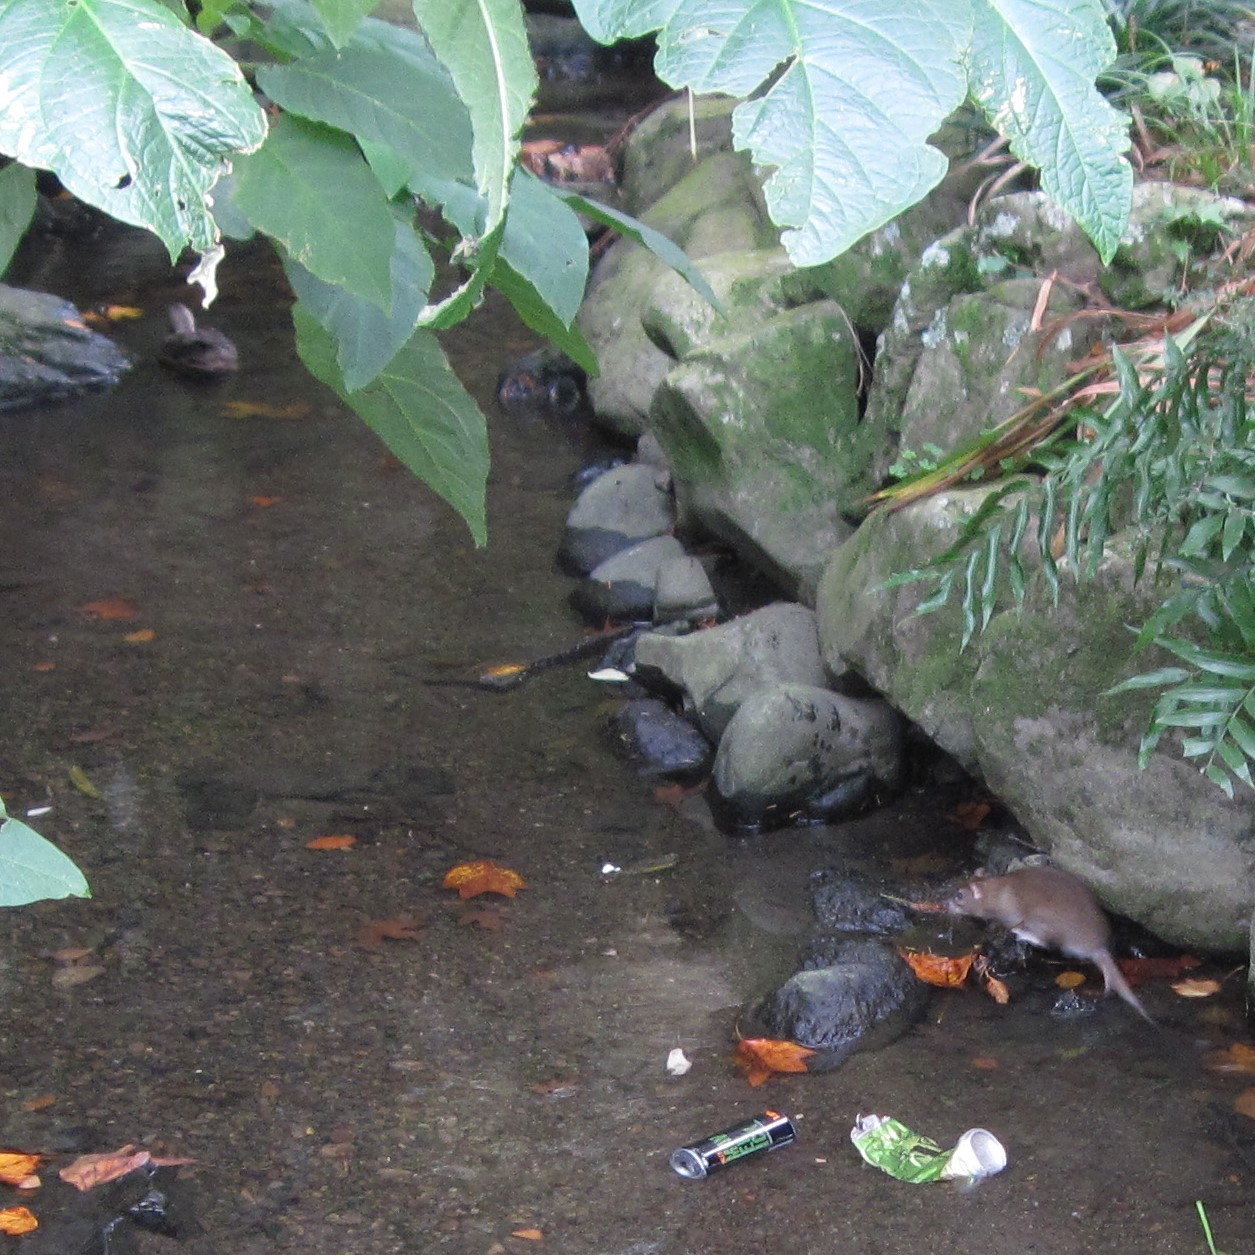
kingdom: Animalia
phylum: Chordata
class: Mammalia
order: Rodentia
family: Muridae
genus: Rattus
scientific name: Rattus norvegicus
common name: Brown rat
